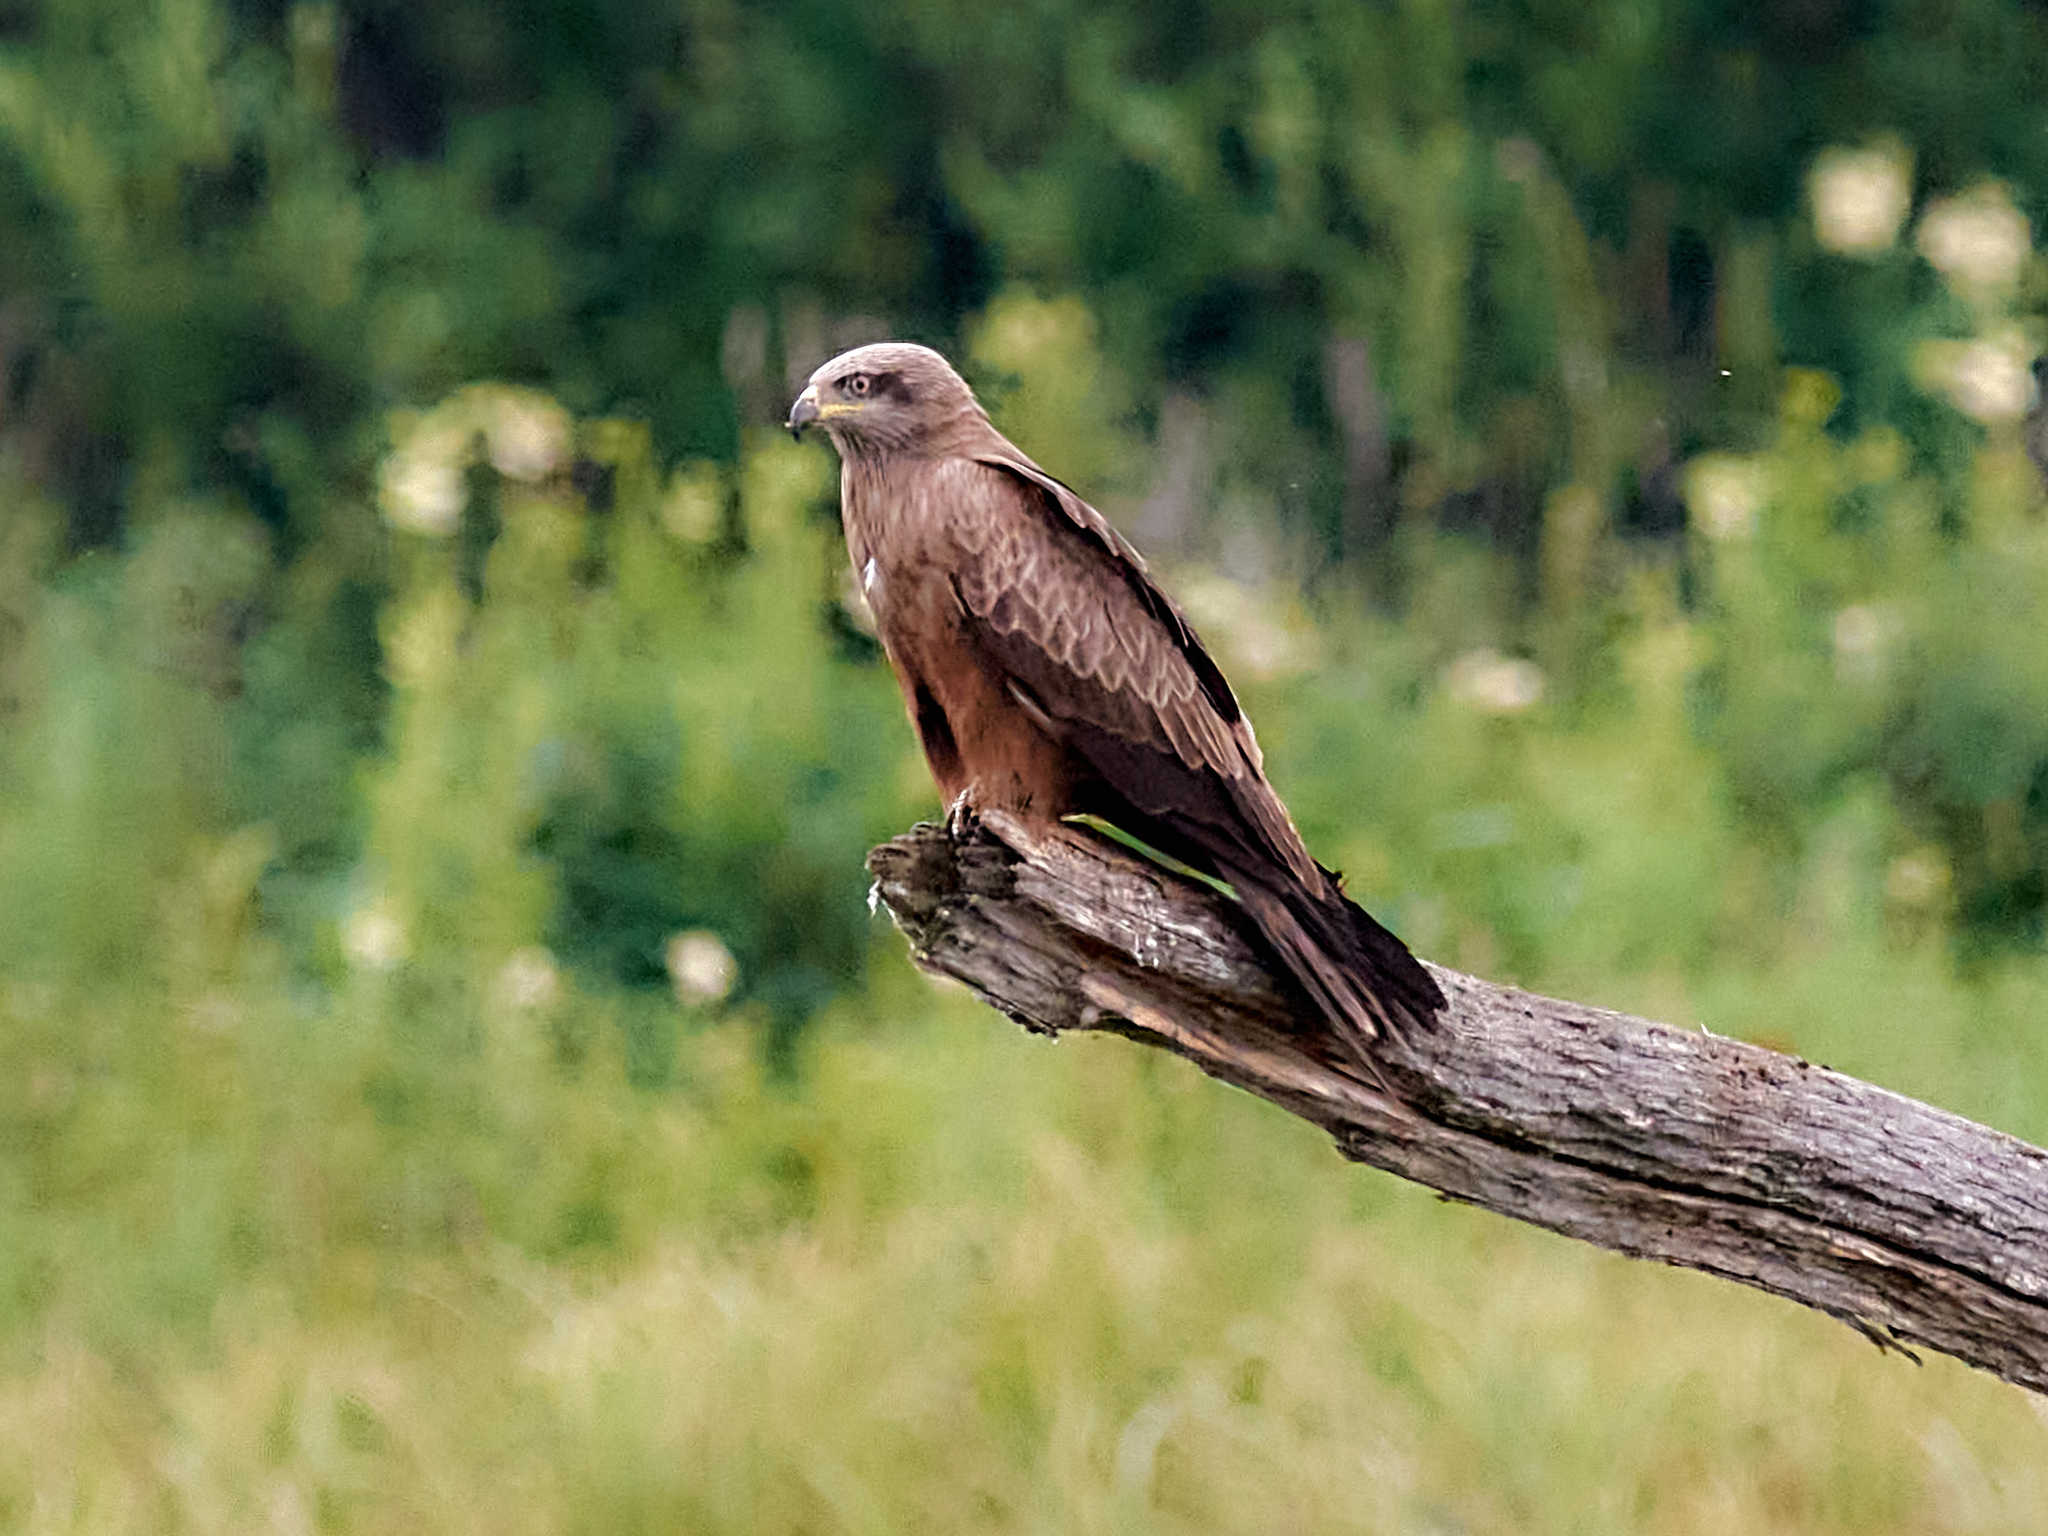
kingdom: Animalia
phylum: Chordata
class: Aves
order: Accipitriformes
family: Accipitridae
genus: Milvus
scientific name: Milvus migrans
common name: Black kite
